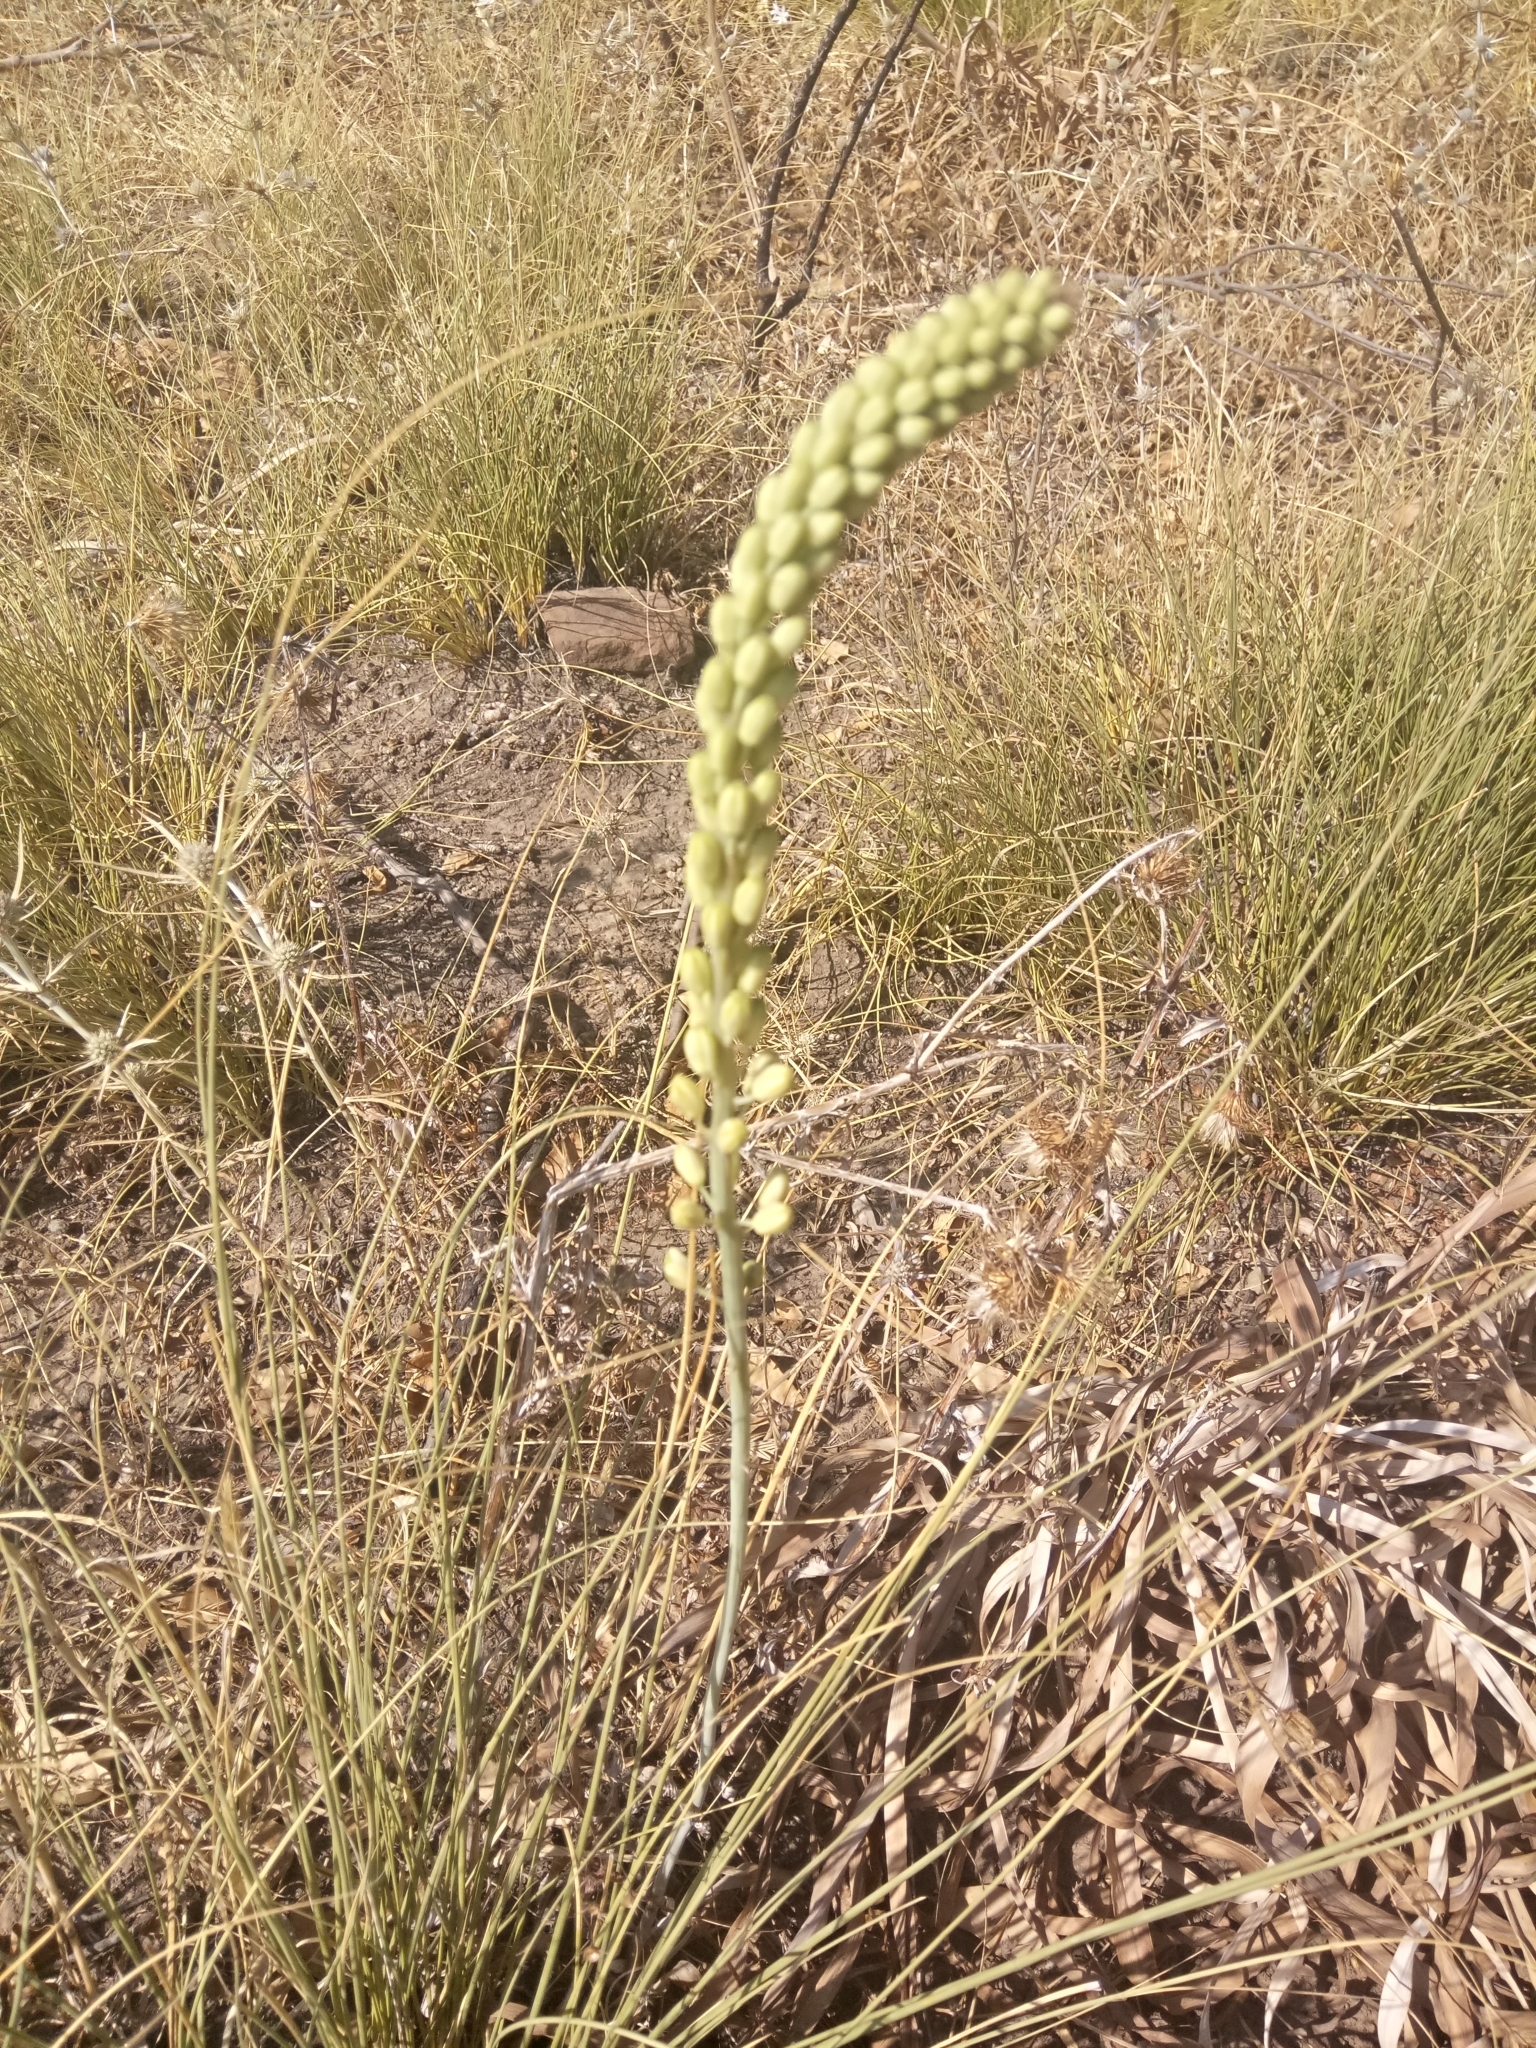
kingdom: Plantae
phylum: Tracheophyta
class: Liliopsida
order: Asparagales
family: Asparagaceae
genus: Drimia
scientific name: Drimia anthericoides
